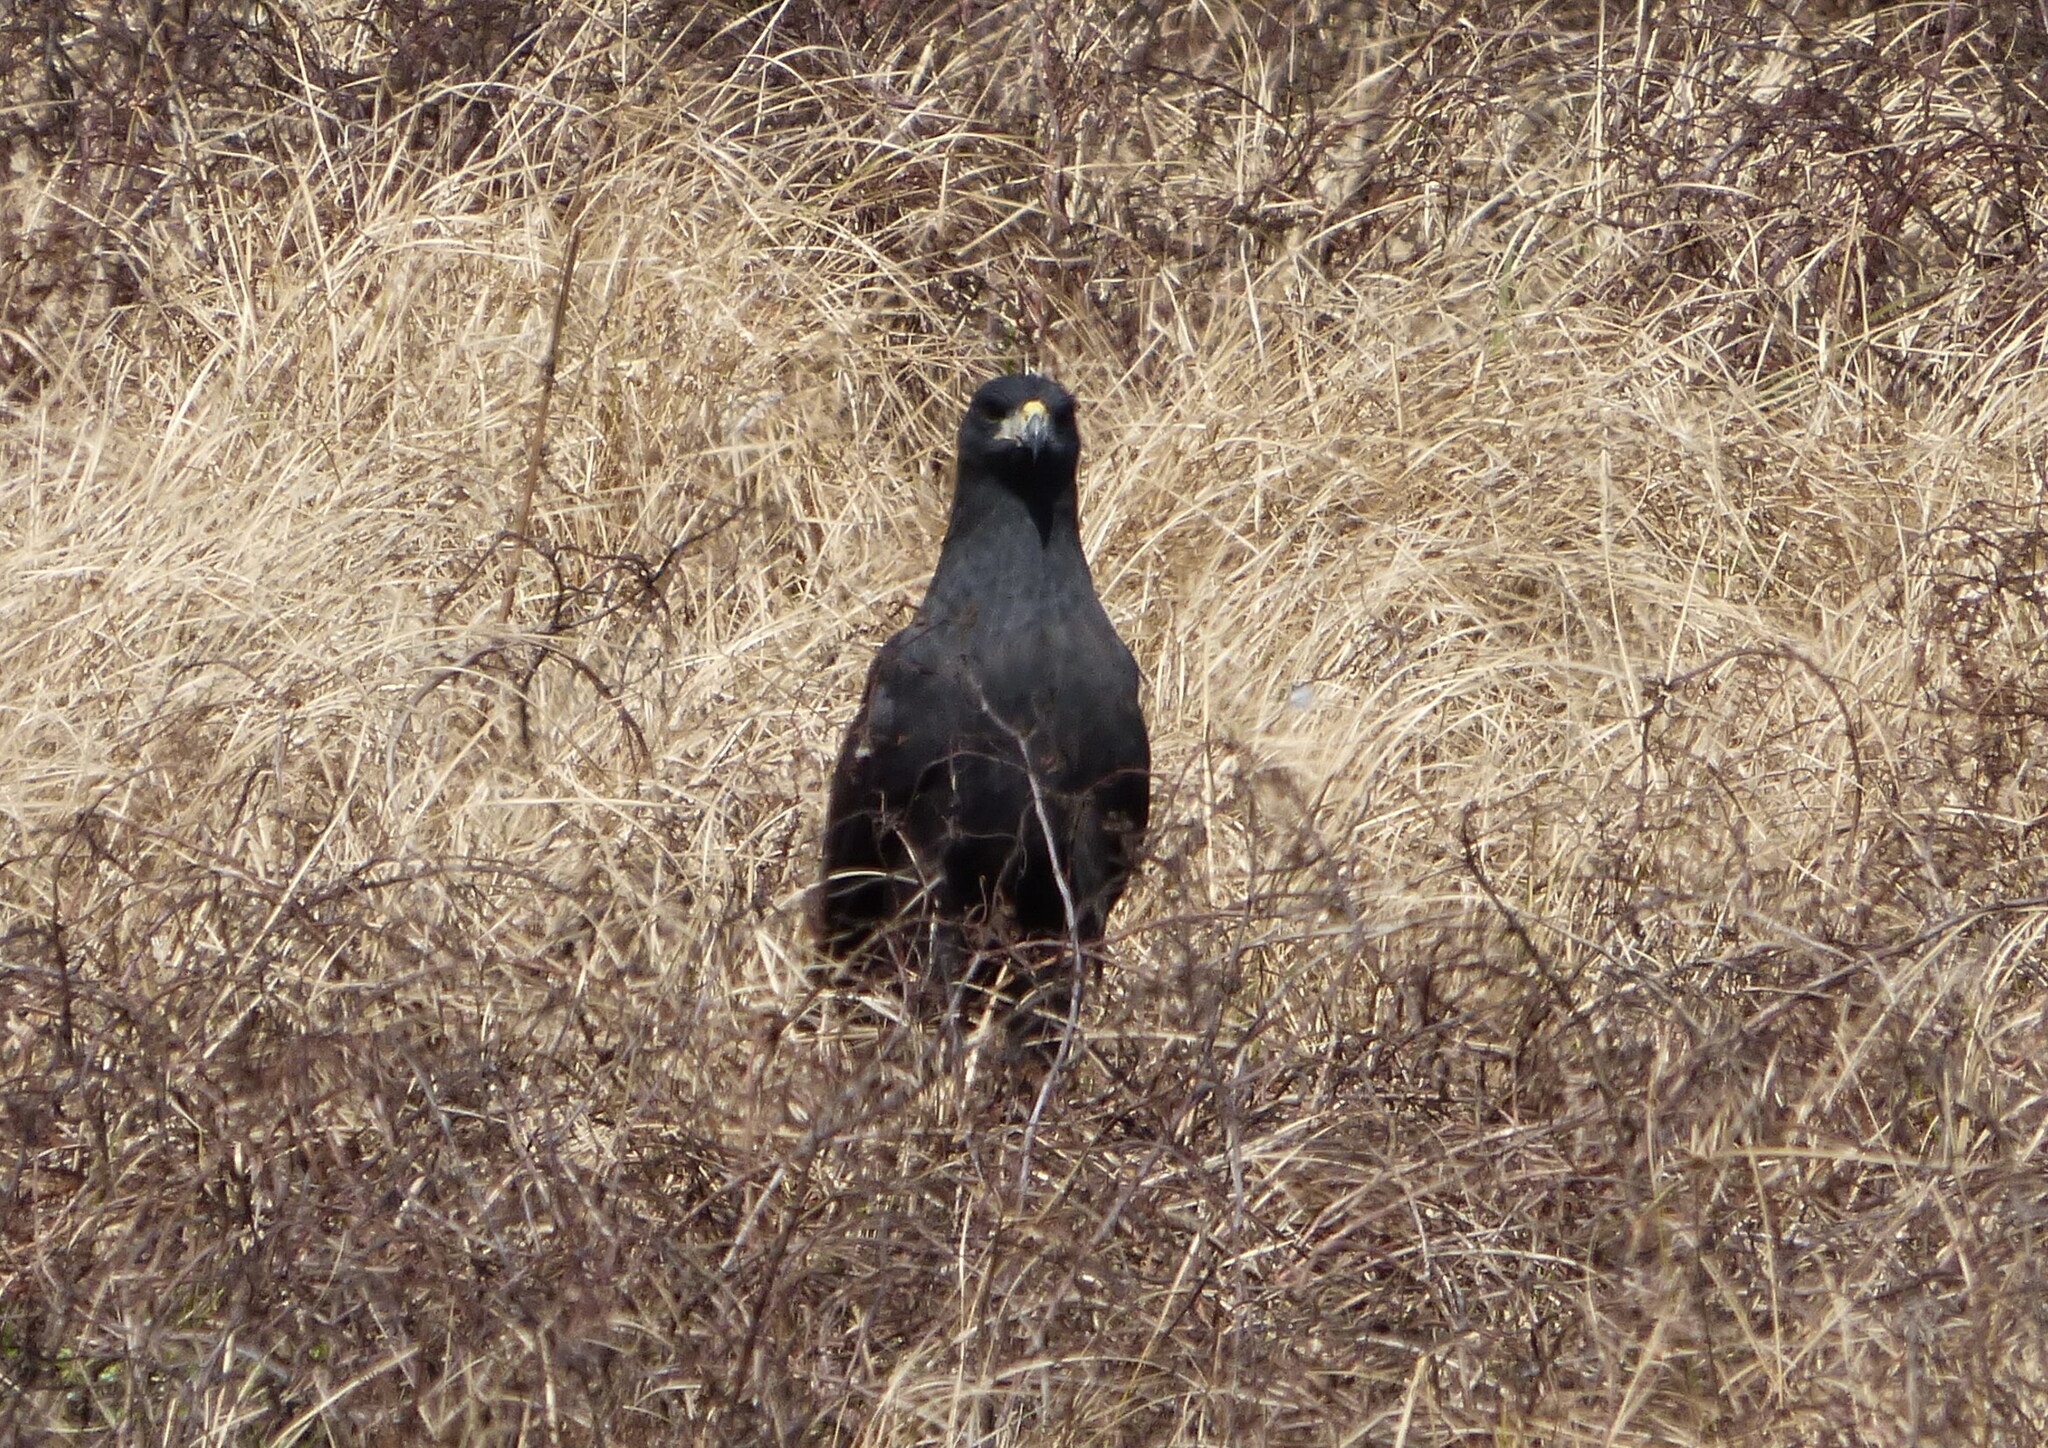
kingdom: Animalia
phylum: Chordata
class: Aves
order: Accipitriformes
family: Accipitridae
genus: Buteogallus
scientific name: Buteogallus urubitinga
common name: Great black hawk
